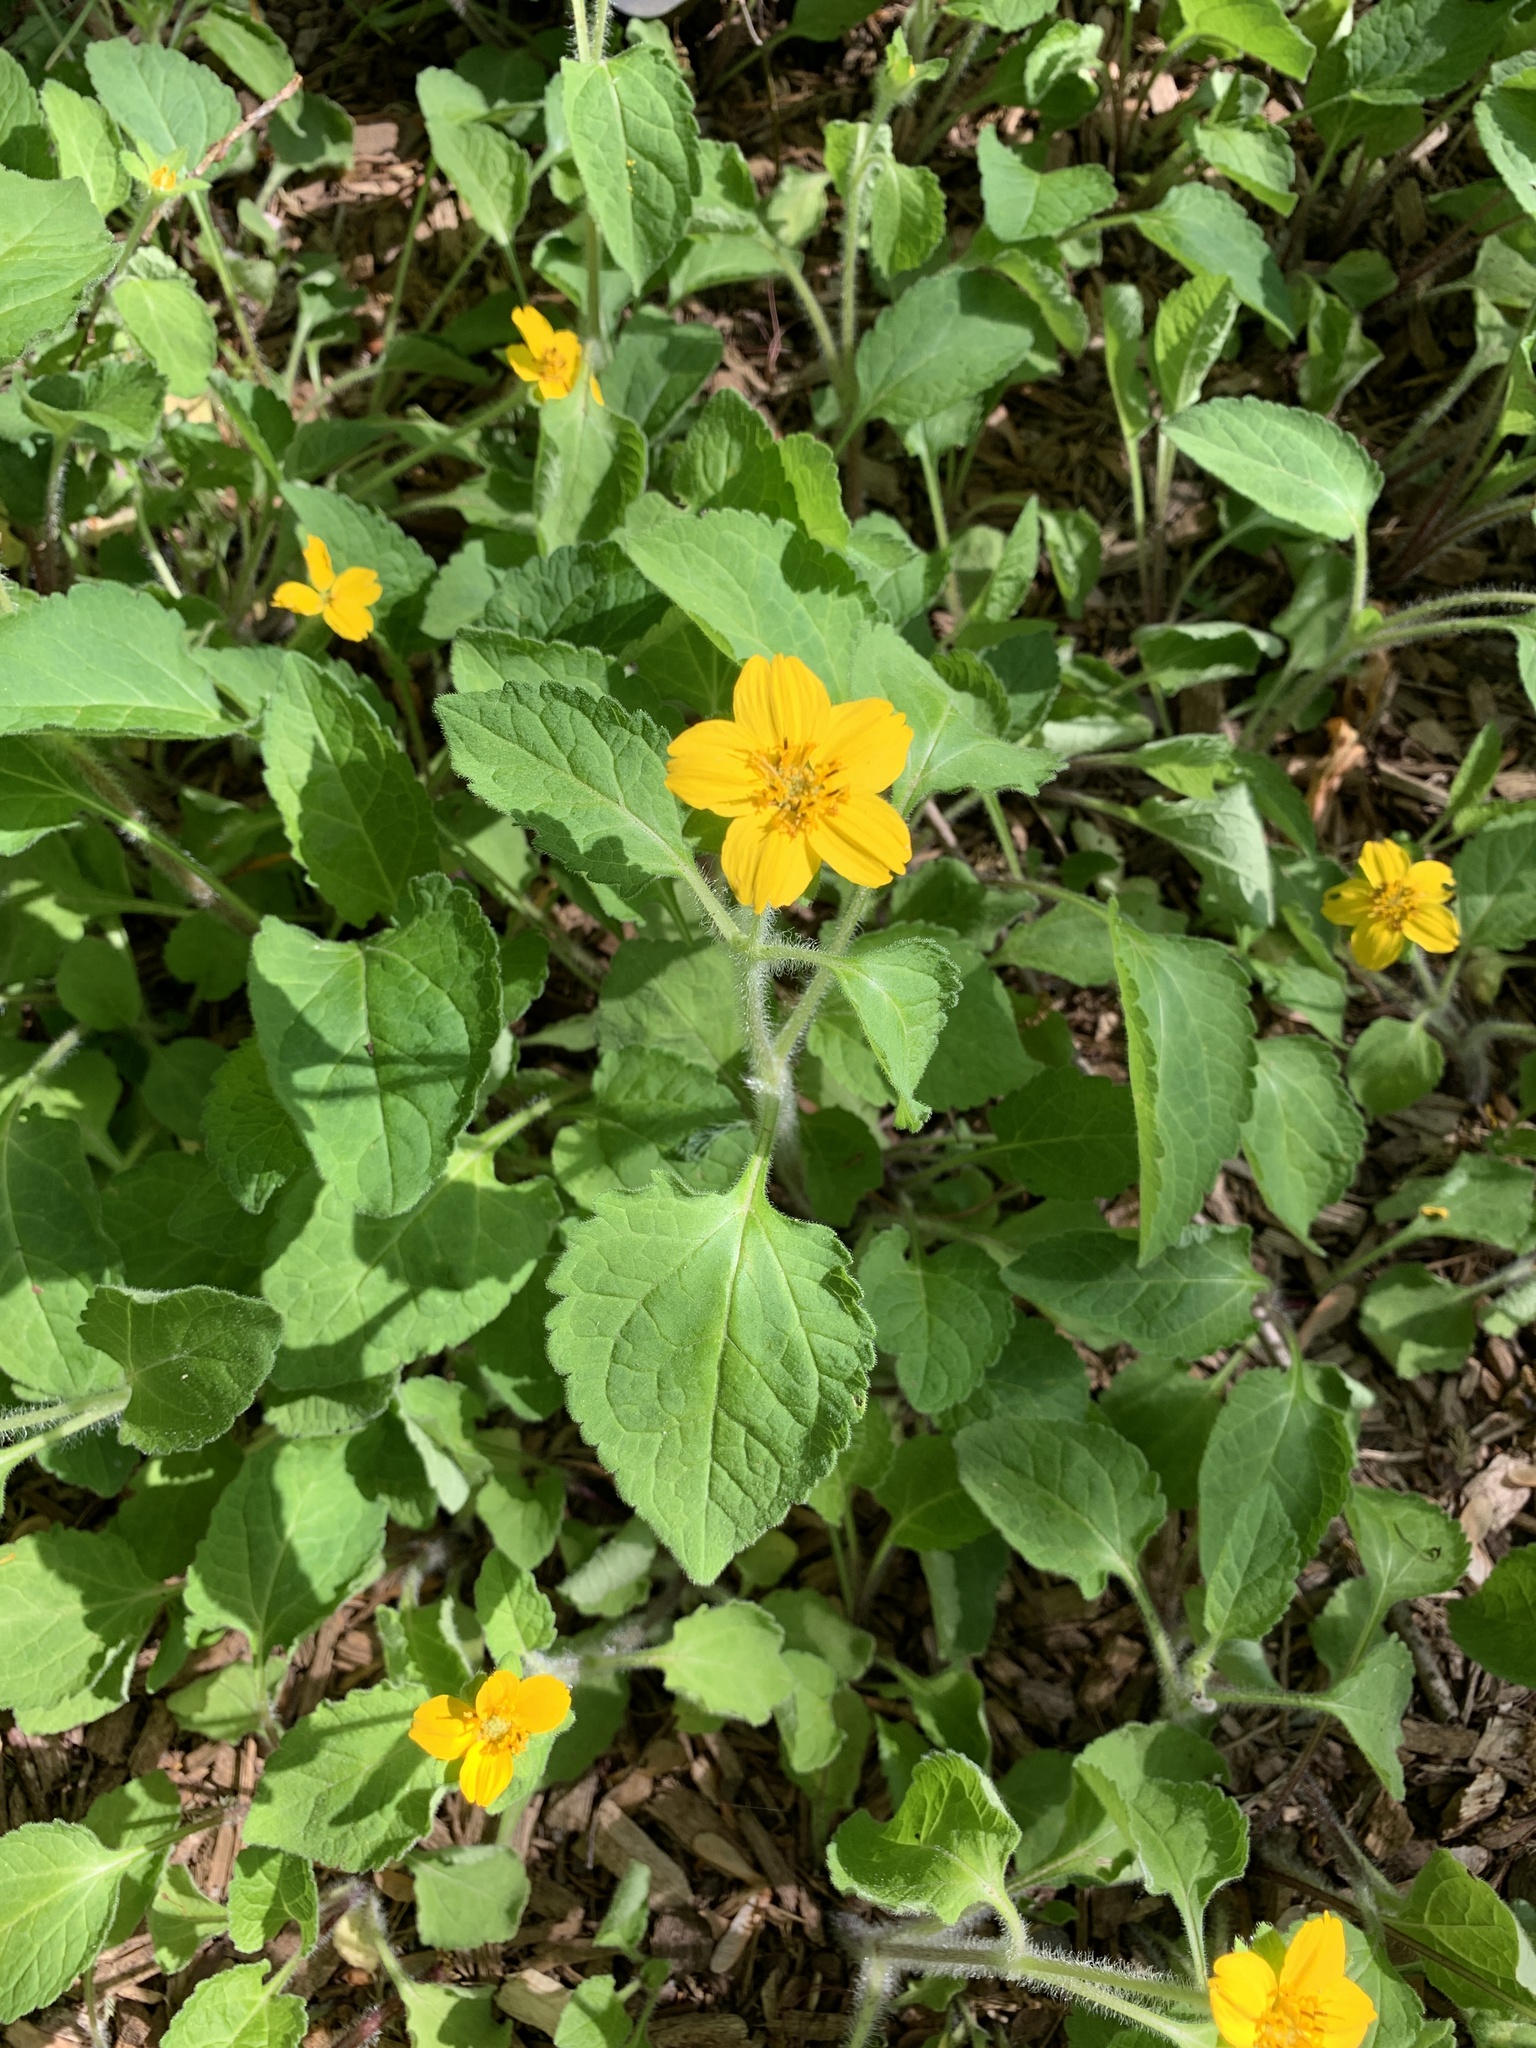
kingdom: Plantae
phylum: Tracheophyta
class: Magnoliopsida
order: Asterales
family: Asteraceae
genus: Chrysogonum
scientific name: Chrysogonum virginianum
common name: Golden-knee
